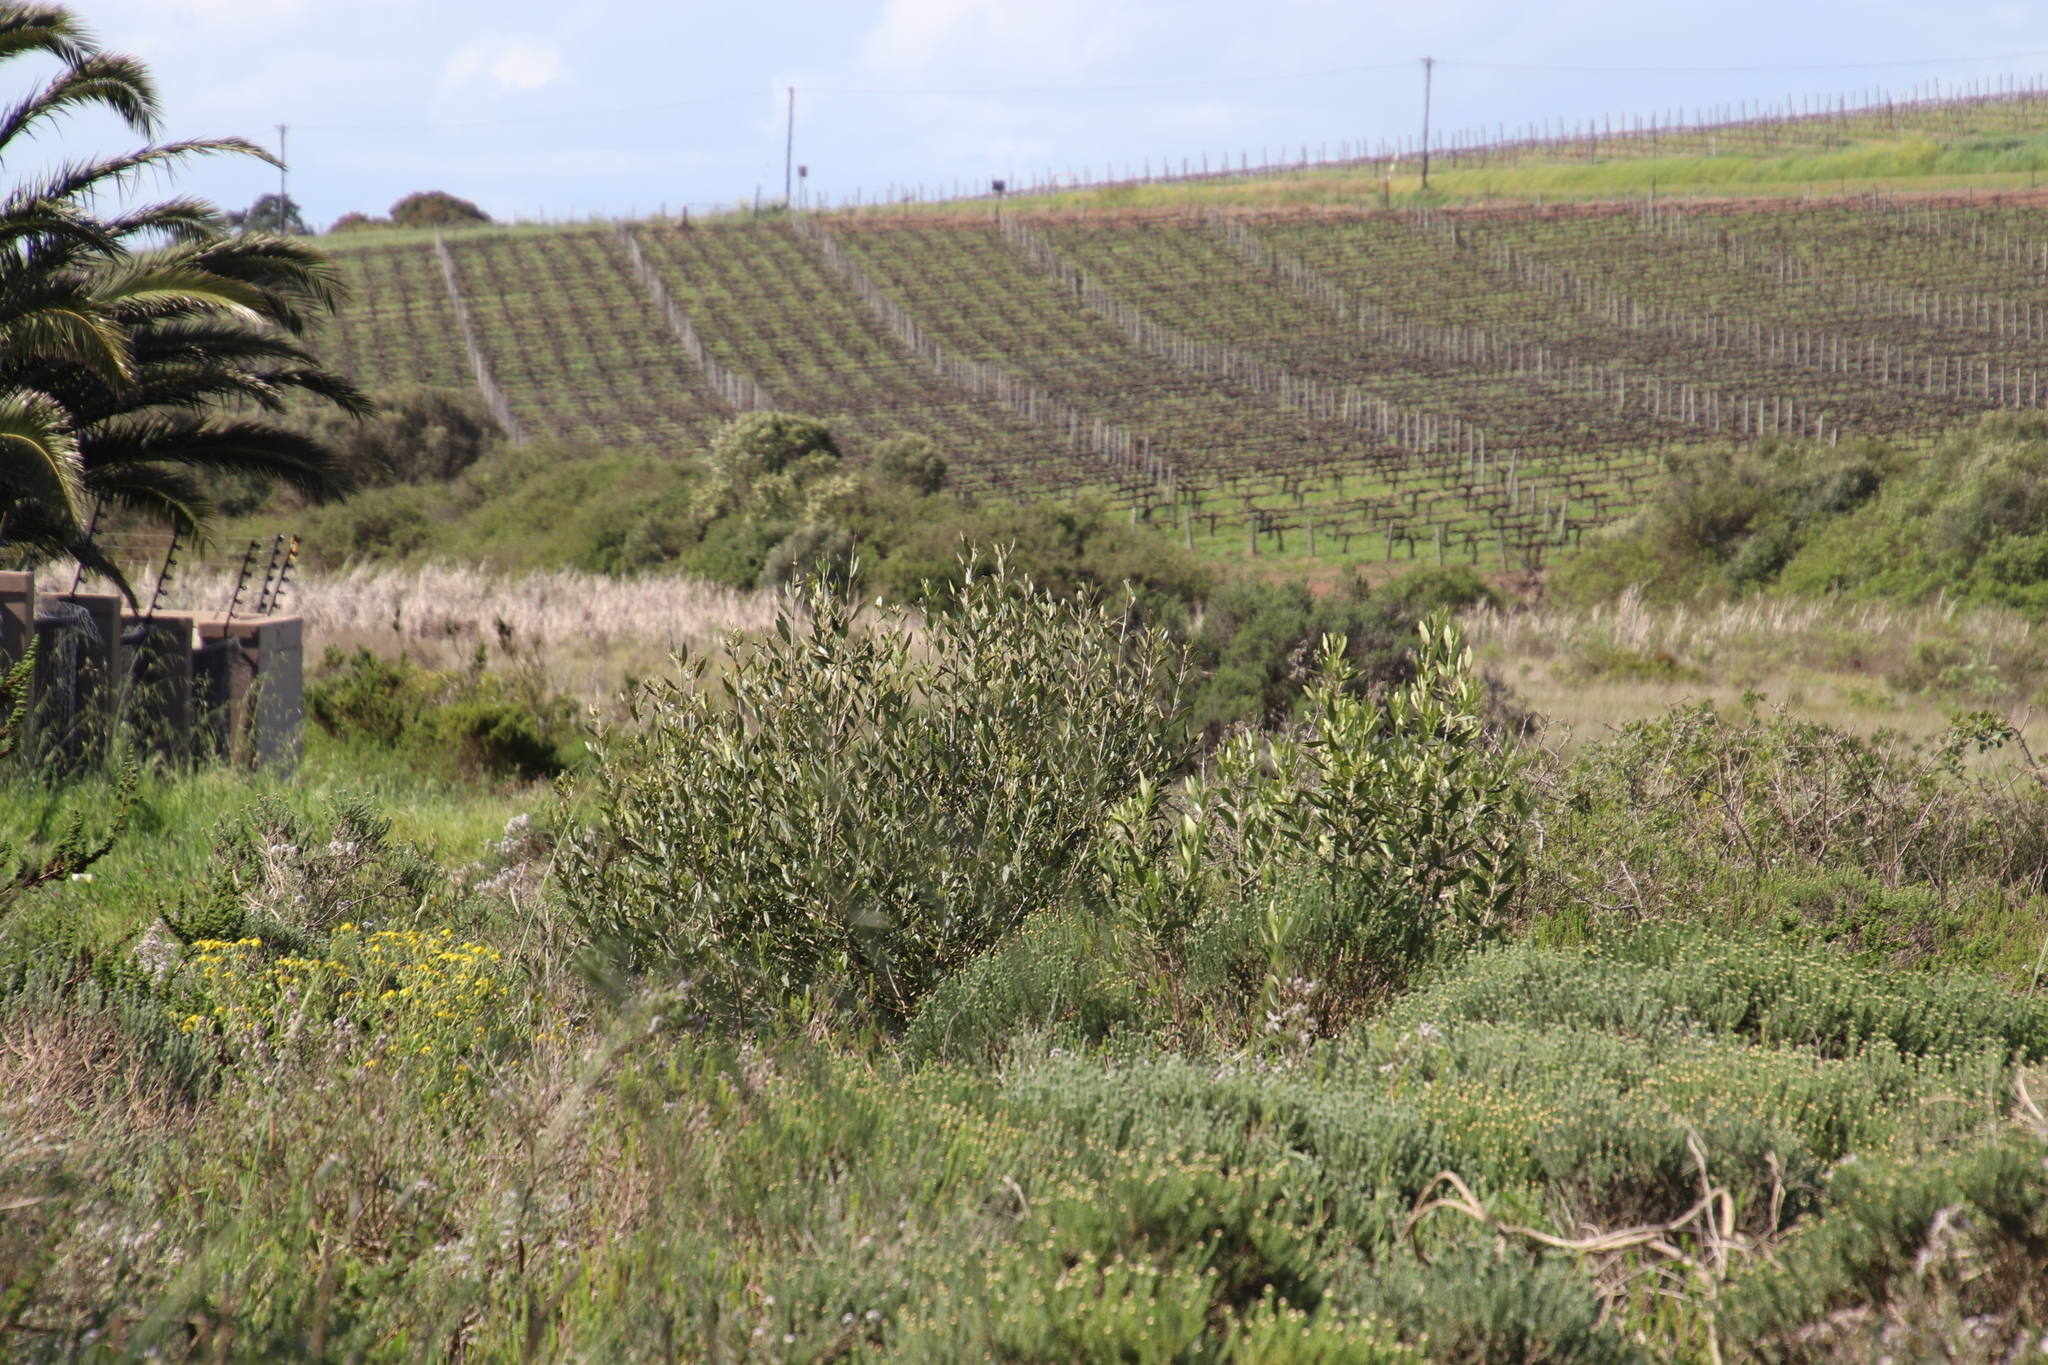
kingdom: Plantae
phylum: Tracheophyta
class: Magnoliopsida
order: Lamiales
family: Oleaceae
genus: Olea
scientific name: Olea europaea
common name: Olive
